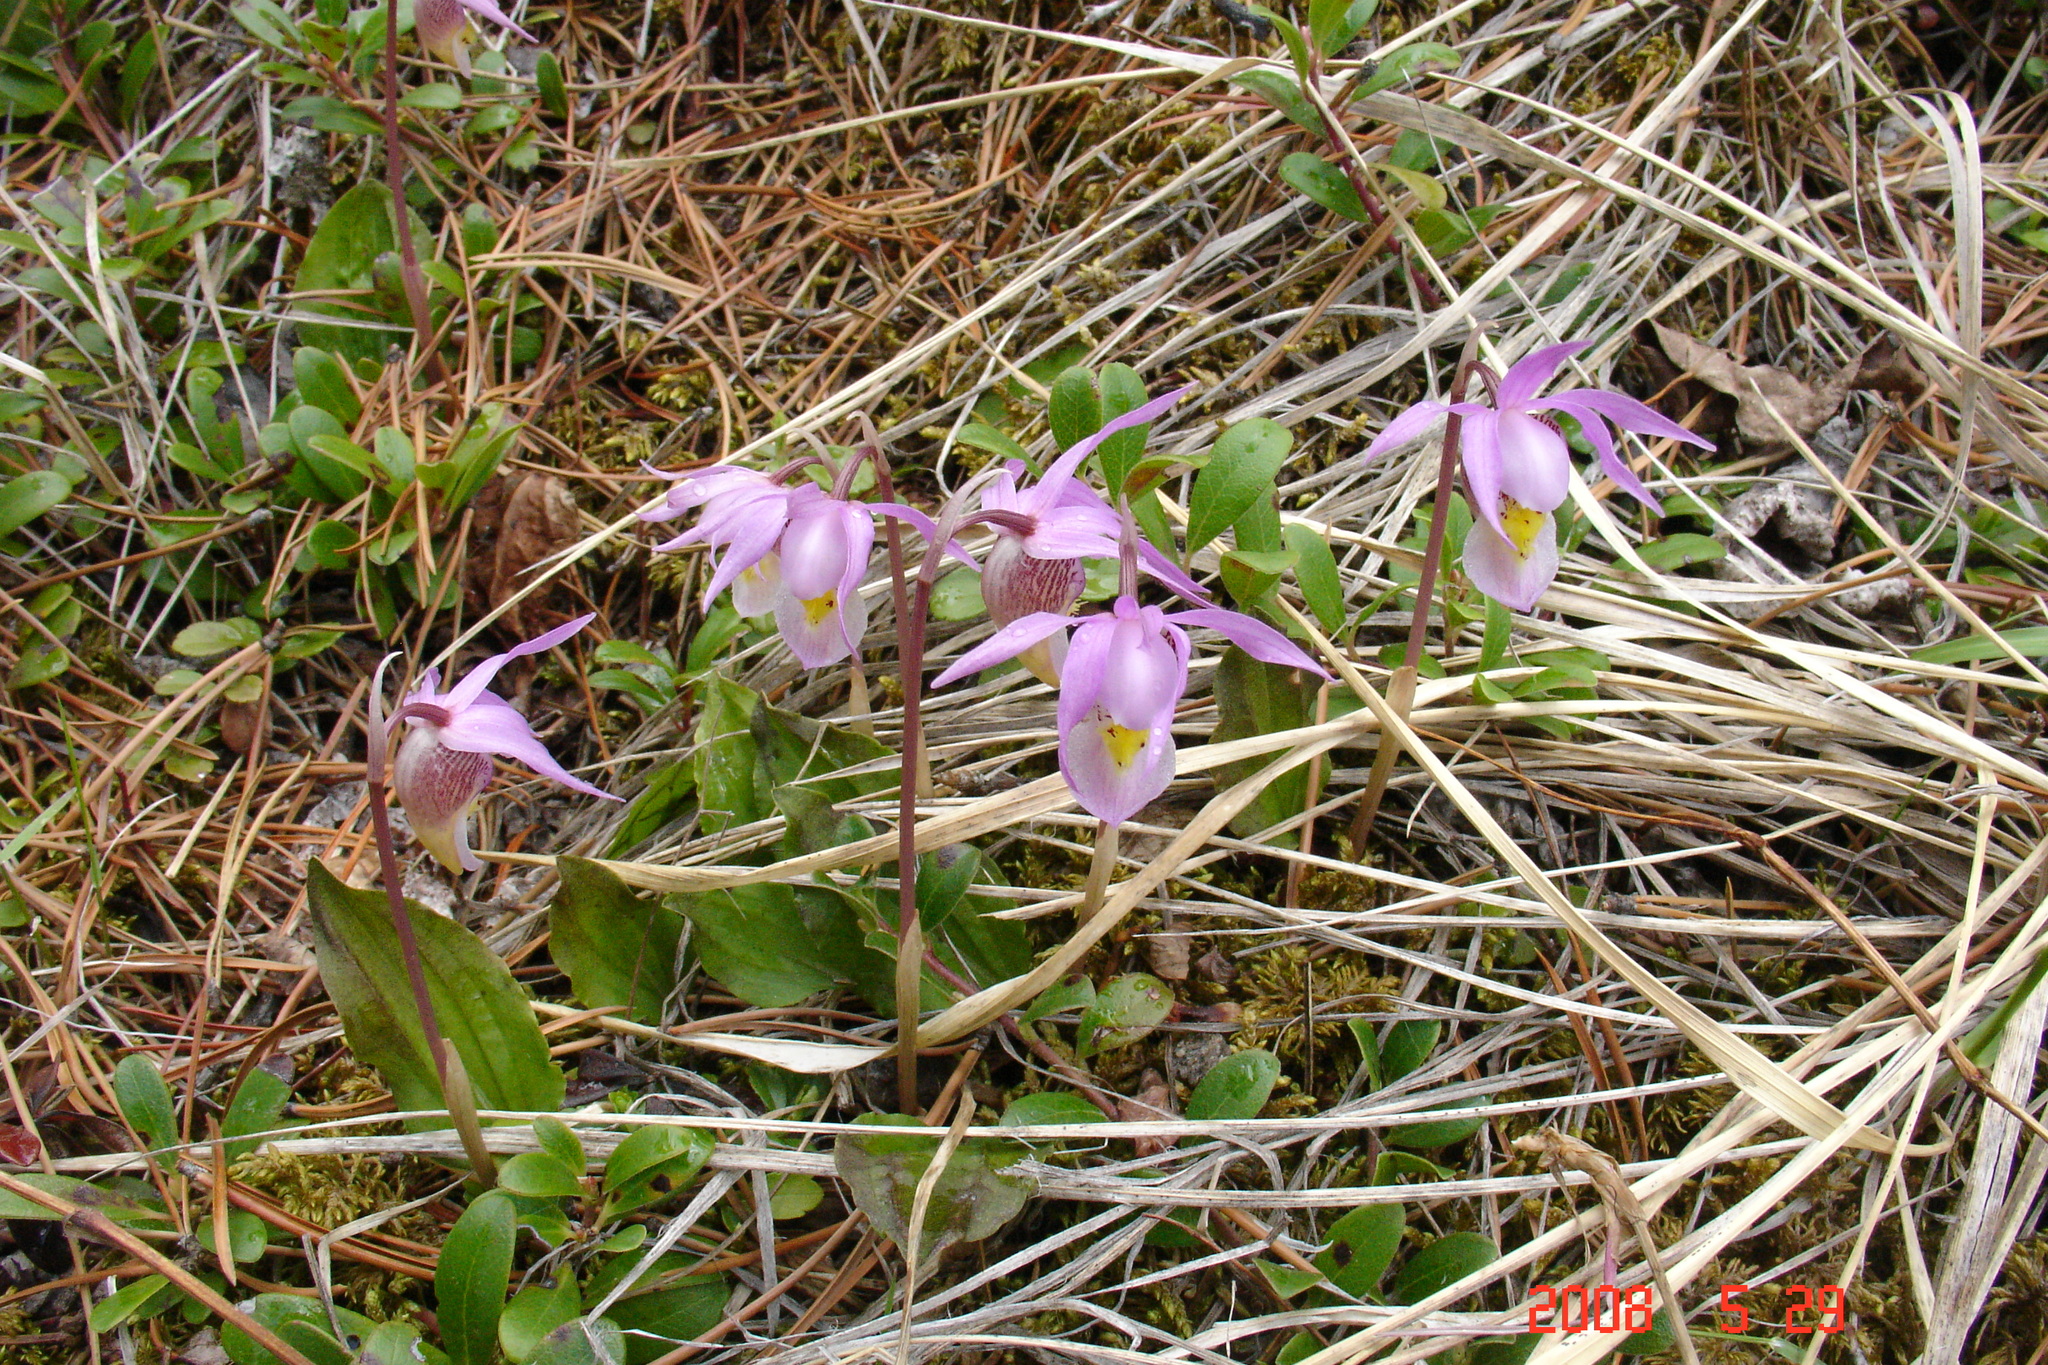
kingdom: Plantae
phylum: Tracheophyta
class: Liliopsida
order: Asparagales
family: Orchidaceae
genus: Calypso
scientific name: Calypso bulbosa
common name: Calypso
